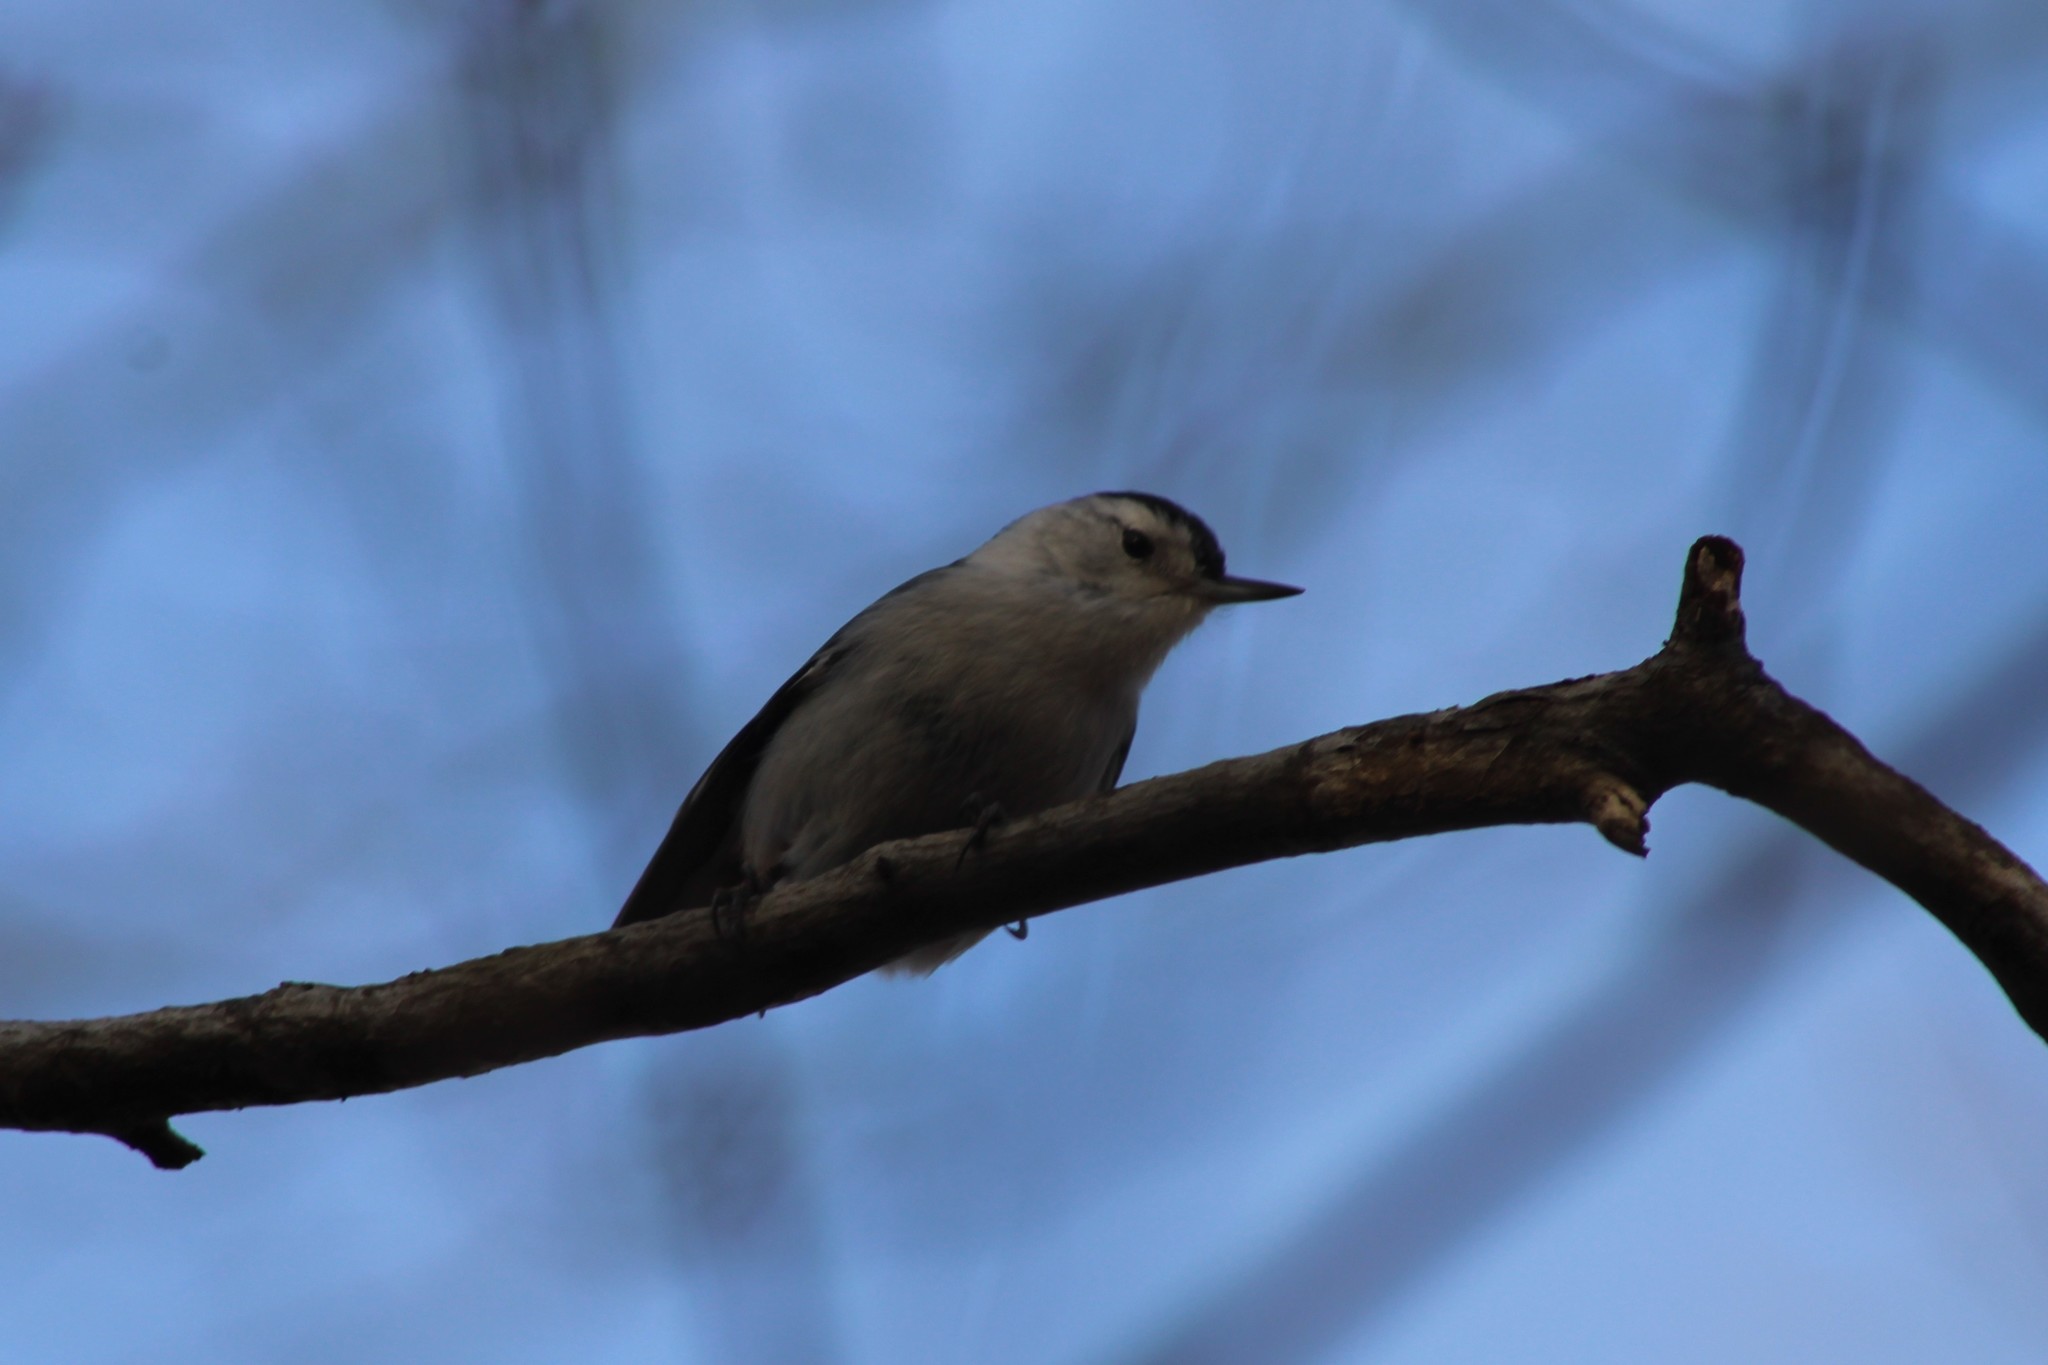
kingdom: Animalia
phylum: Chordata
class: Aves
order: Passeriformes
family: Sittidae
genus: Sitta
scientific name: Sitta carolinensis
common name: White-breasted nuthatch
